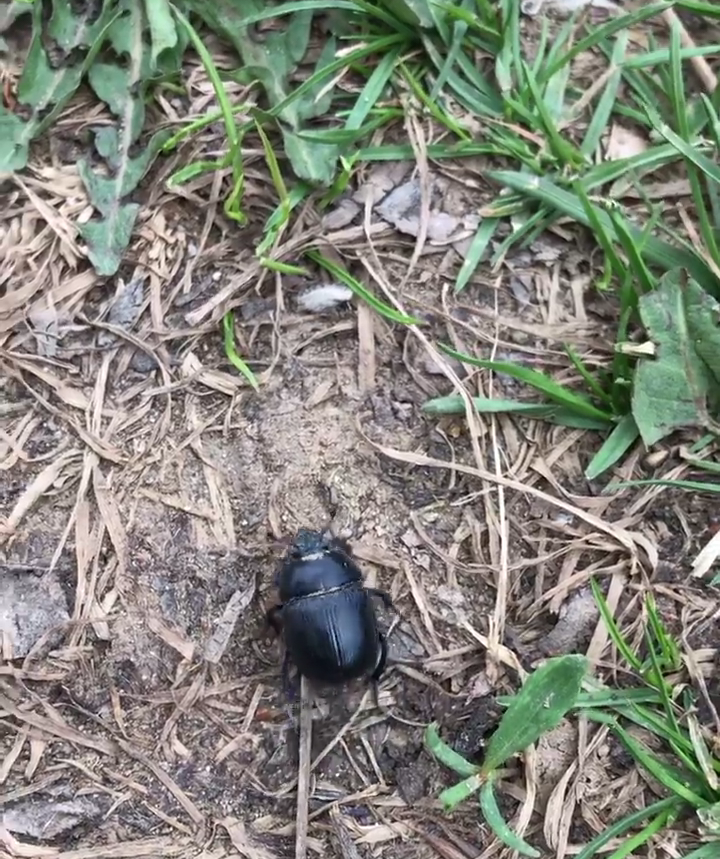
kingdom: Animalia
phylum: Arthropoda
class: Insecta
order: Coleoptera
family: Geotrupidae
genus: Anoplotrupes
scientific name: Anoplotrupes stercorosus
